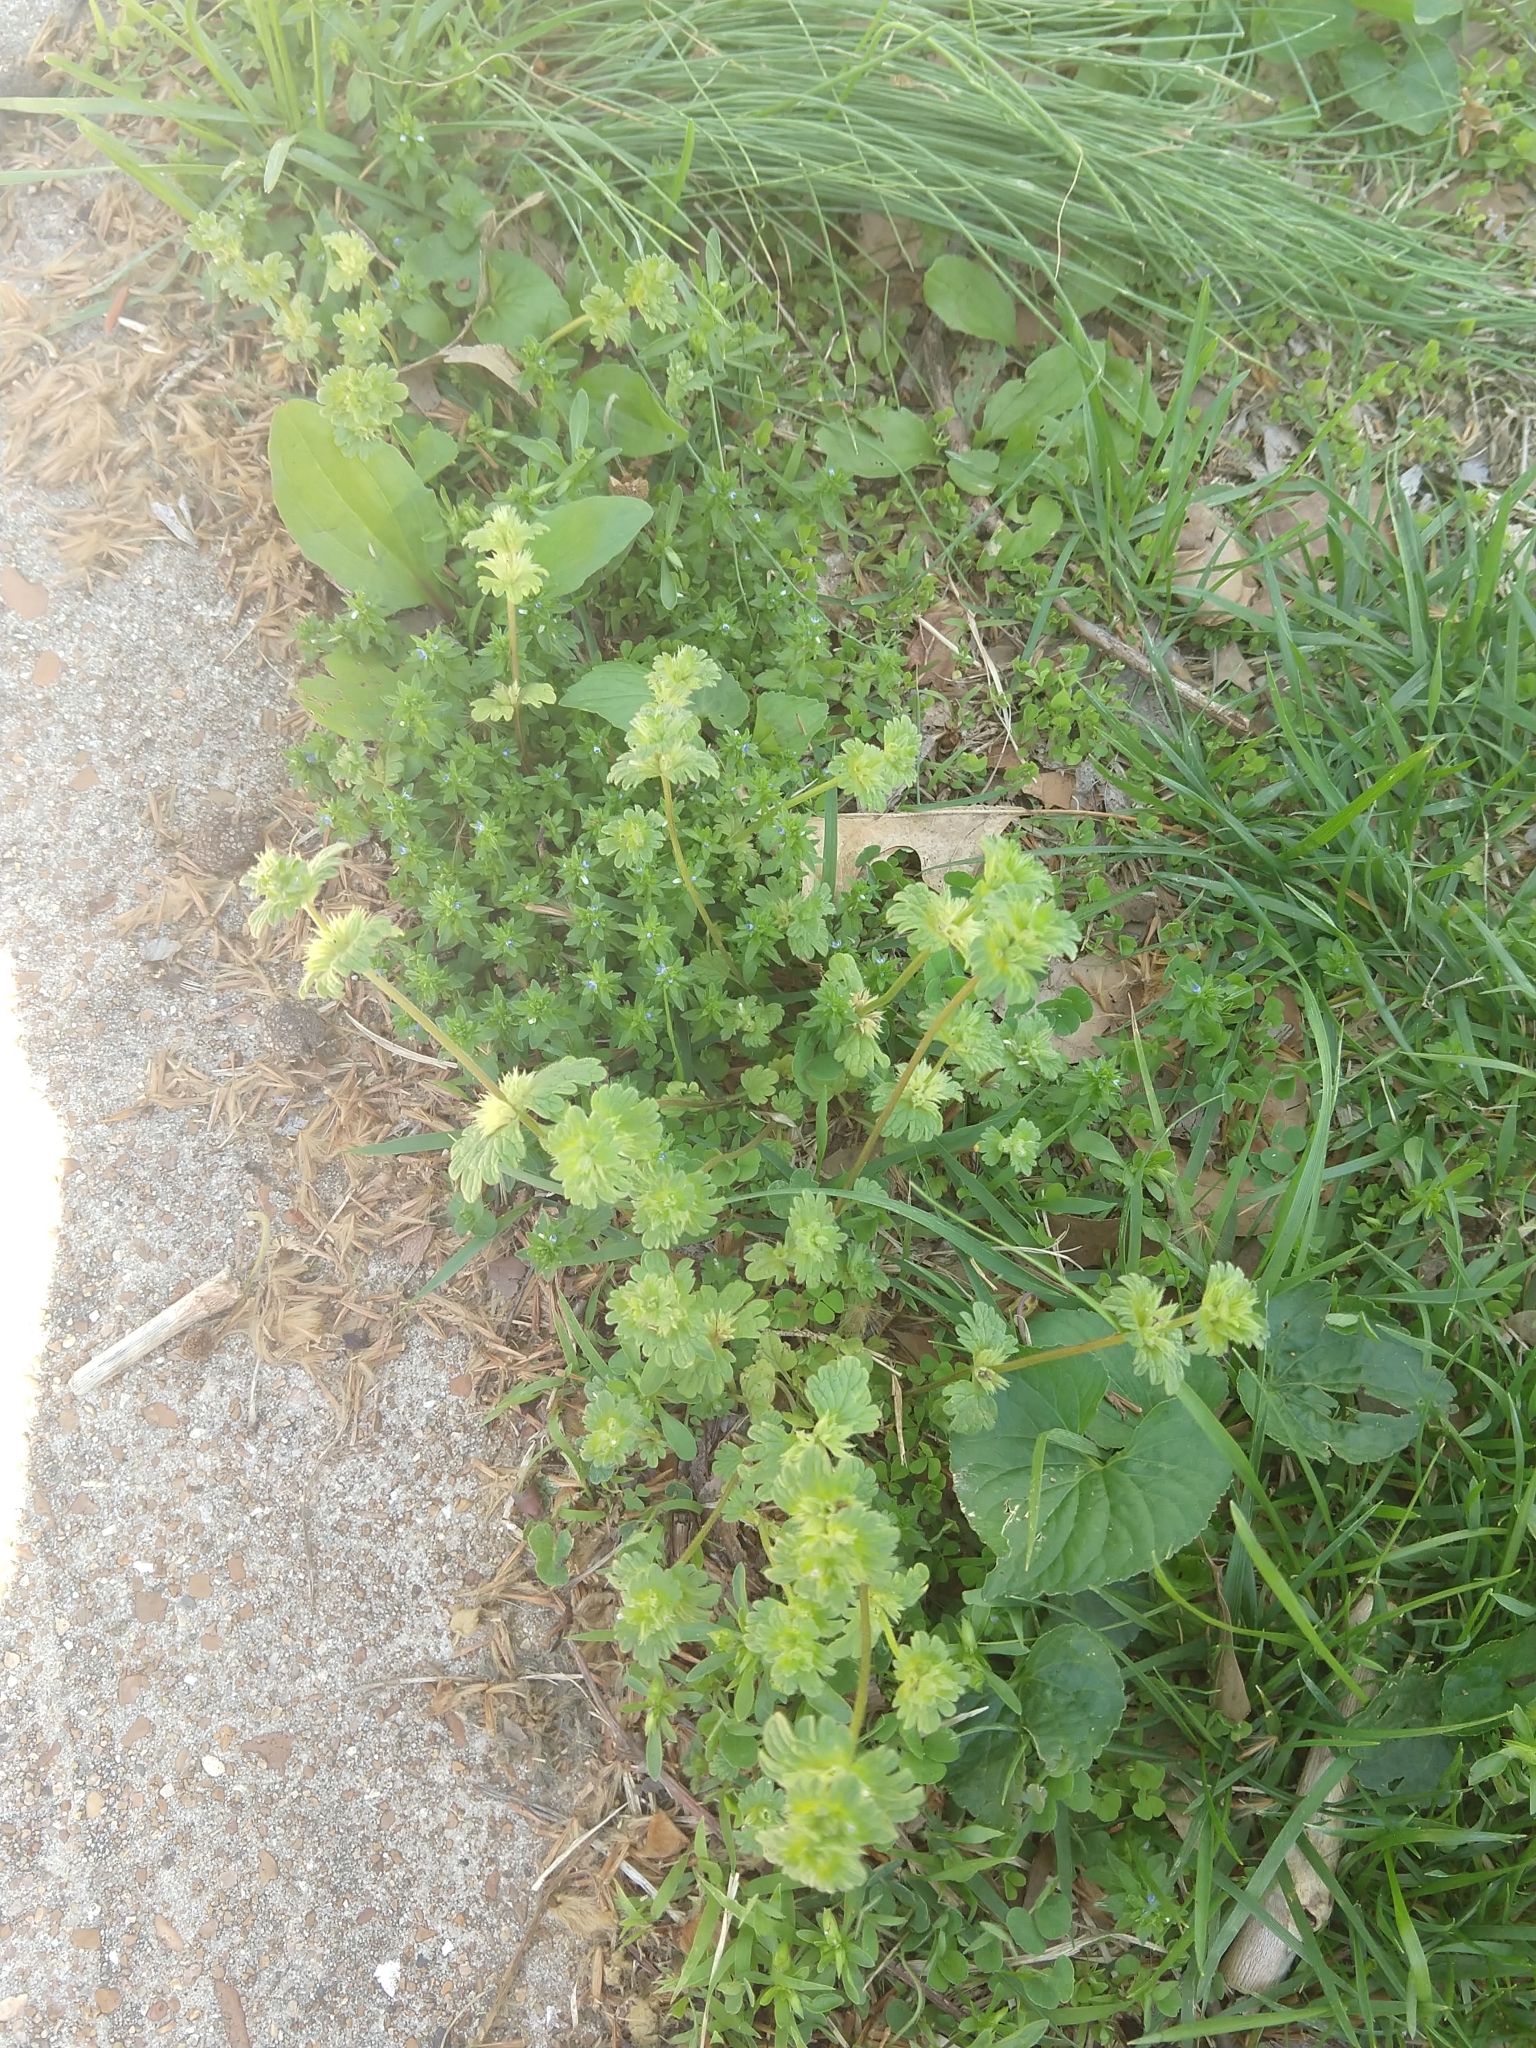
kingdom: Plantae
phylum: Tracheophyta
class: Magnoliopsida
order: Lamiales
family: Lamiaceae
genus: Lamium
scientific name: Lamium amplexicaule
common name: Henbit dead-nettle
